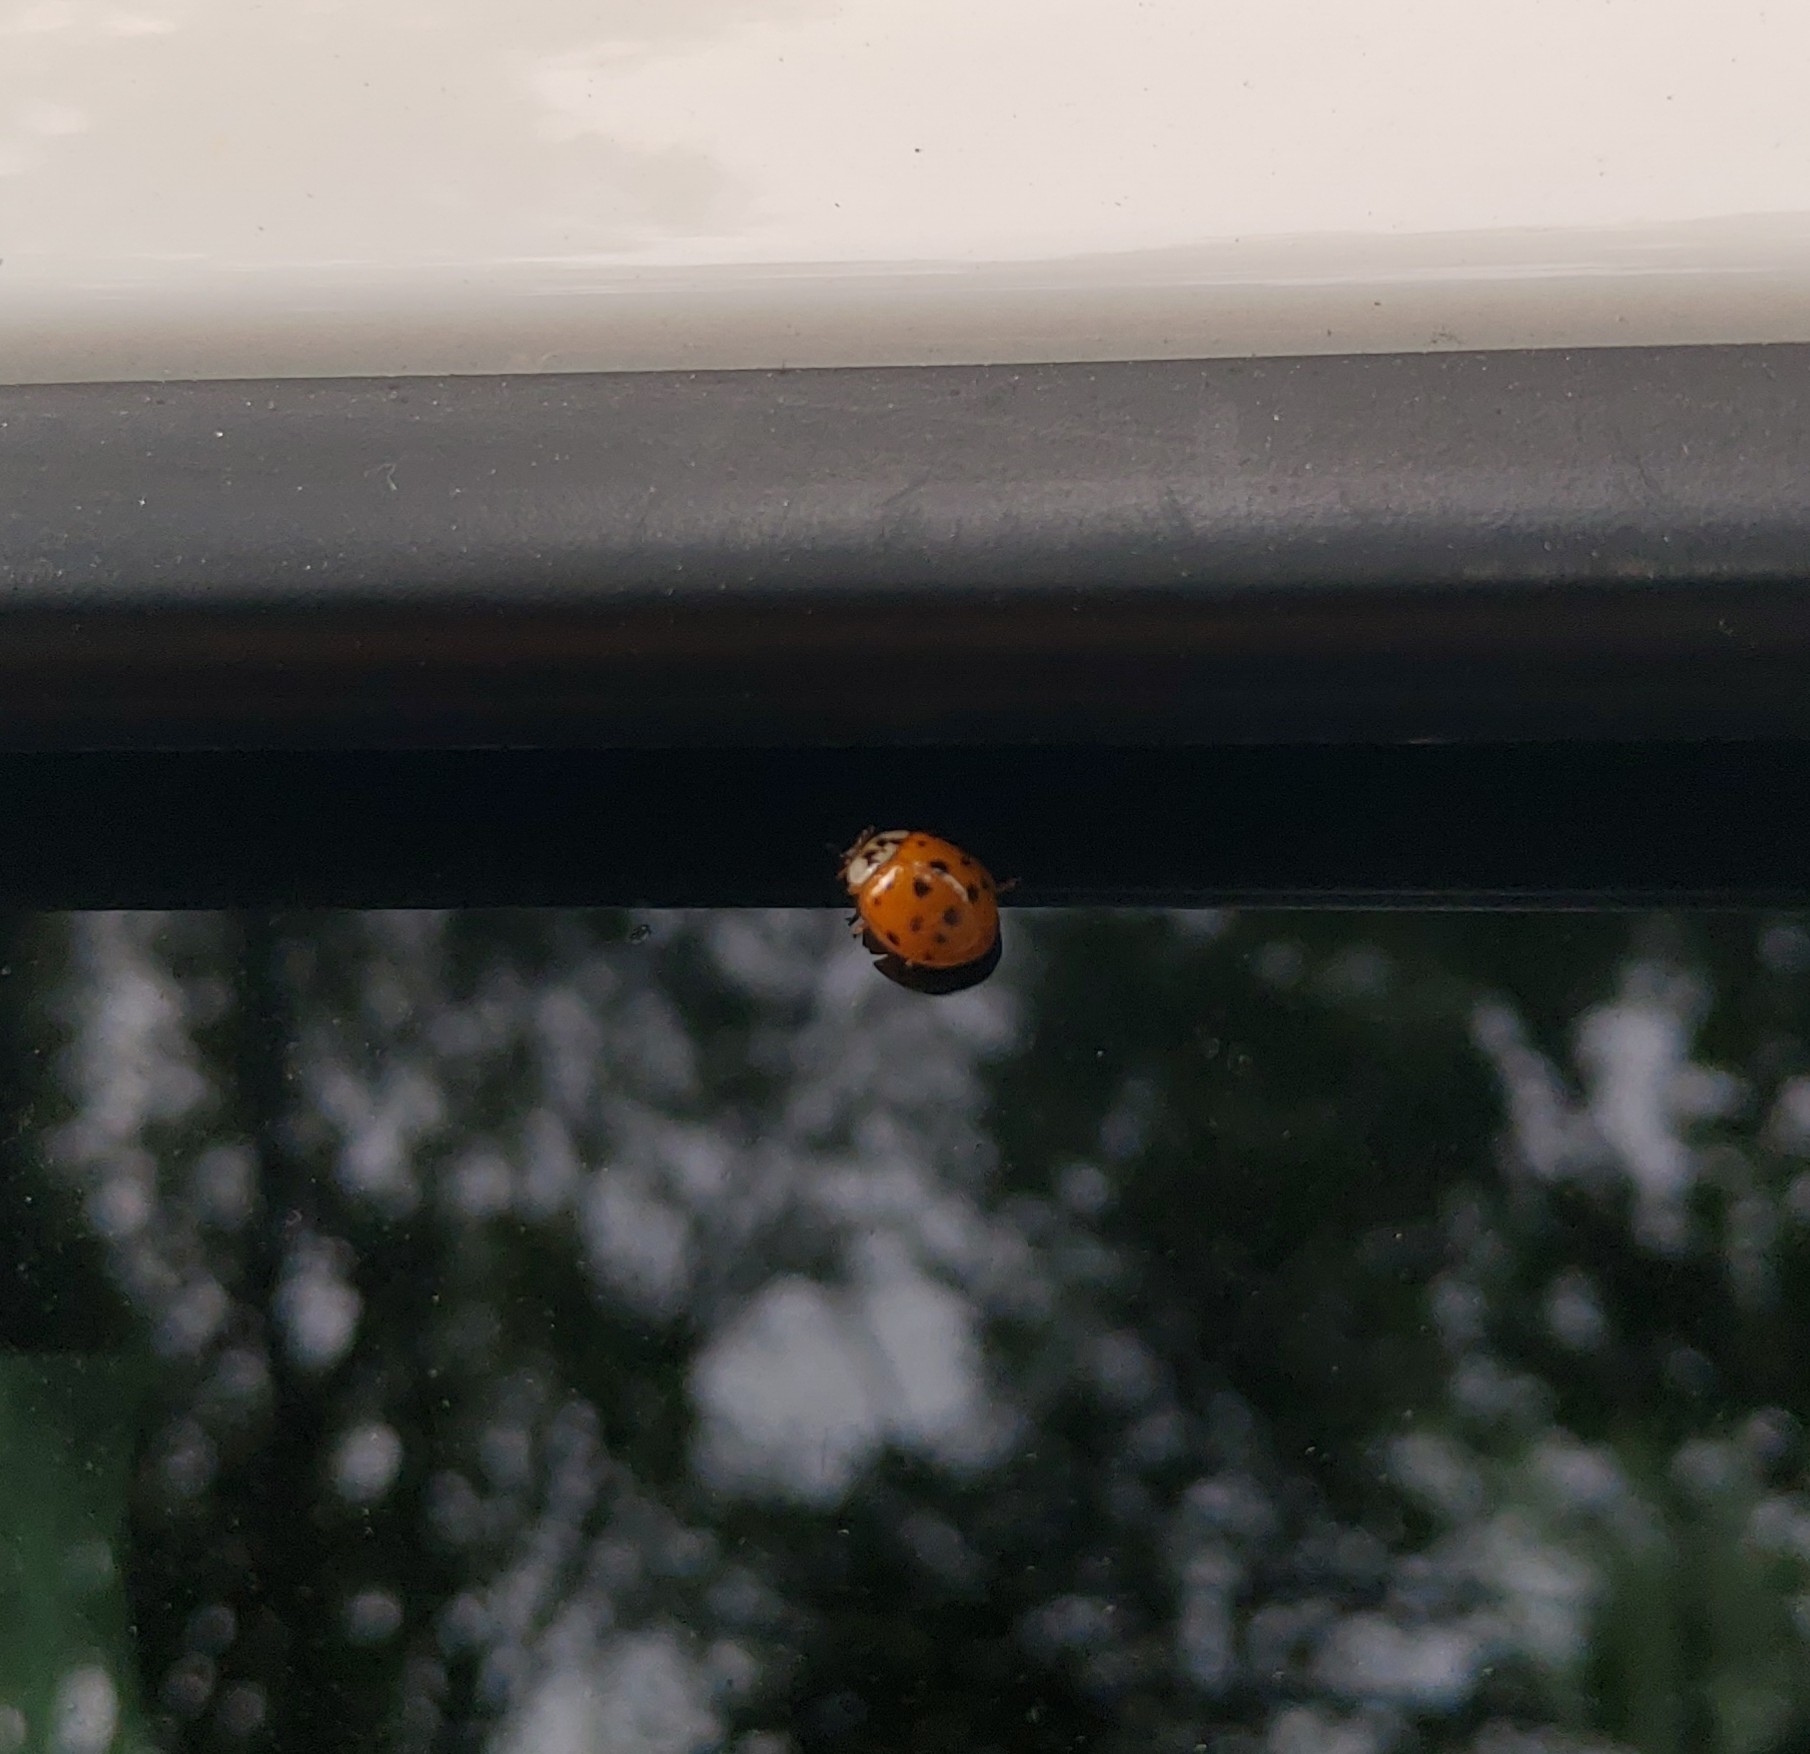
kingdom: Animalia
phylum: Arthropoda
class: Insecta
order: Coleoptera
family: Coccinellidae
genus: Harmonia
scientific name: Harmonia axyridis
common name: Harlequin ladybird
